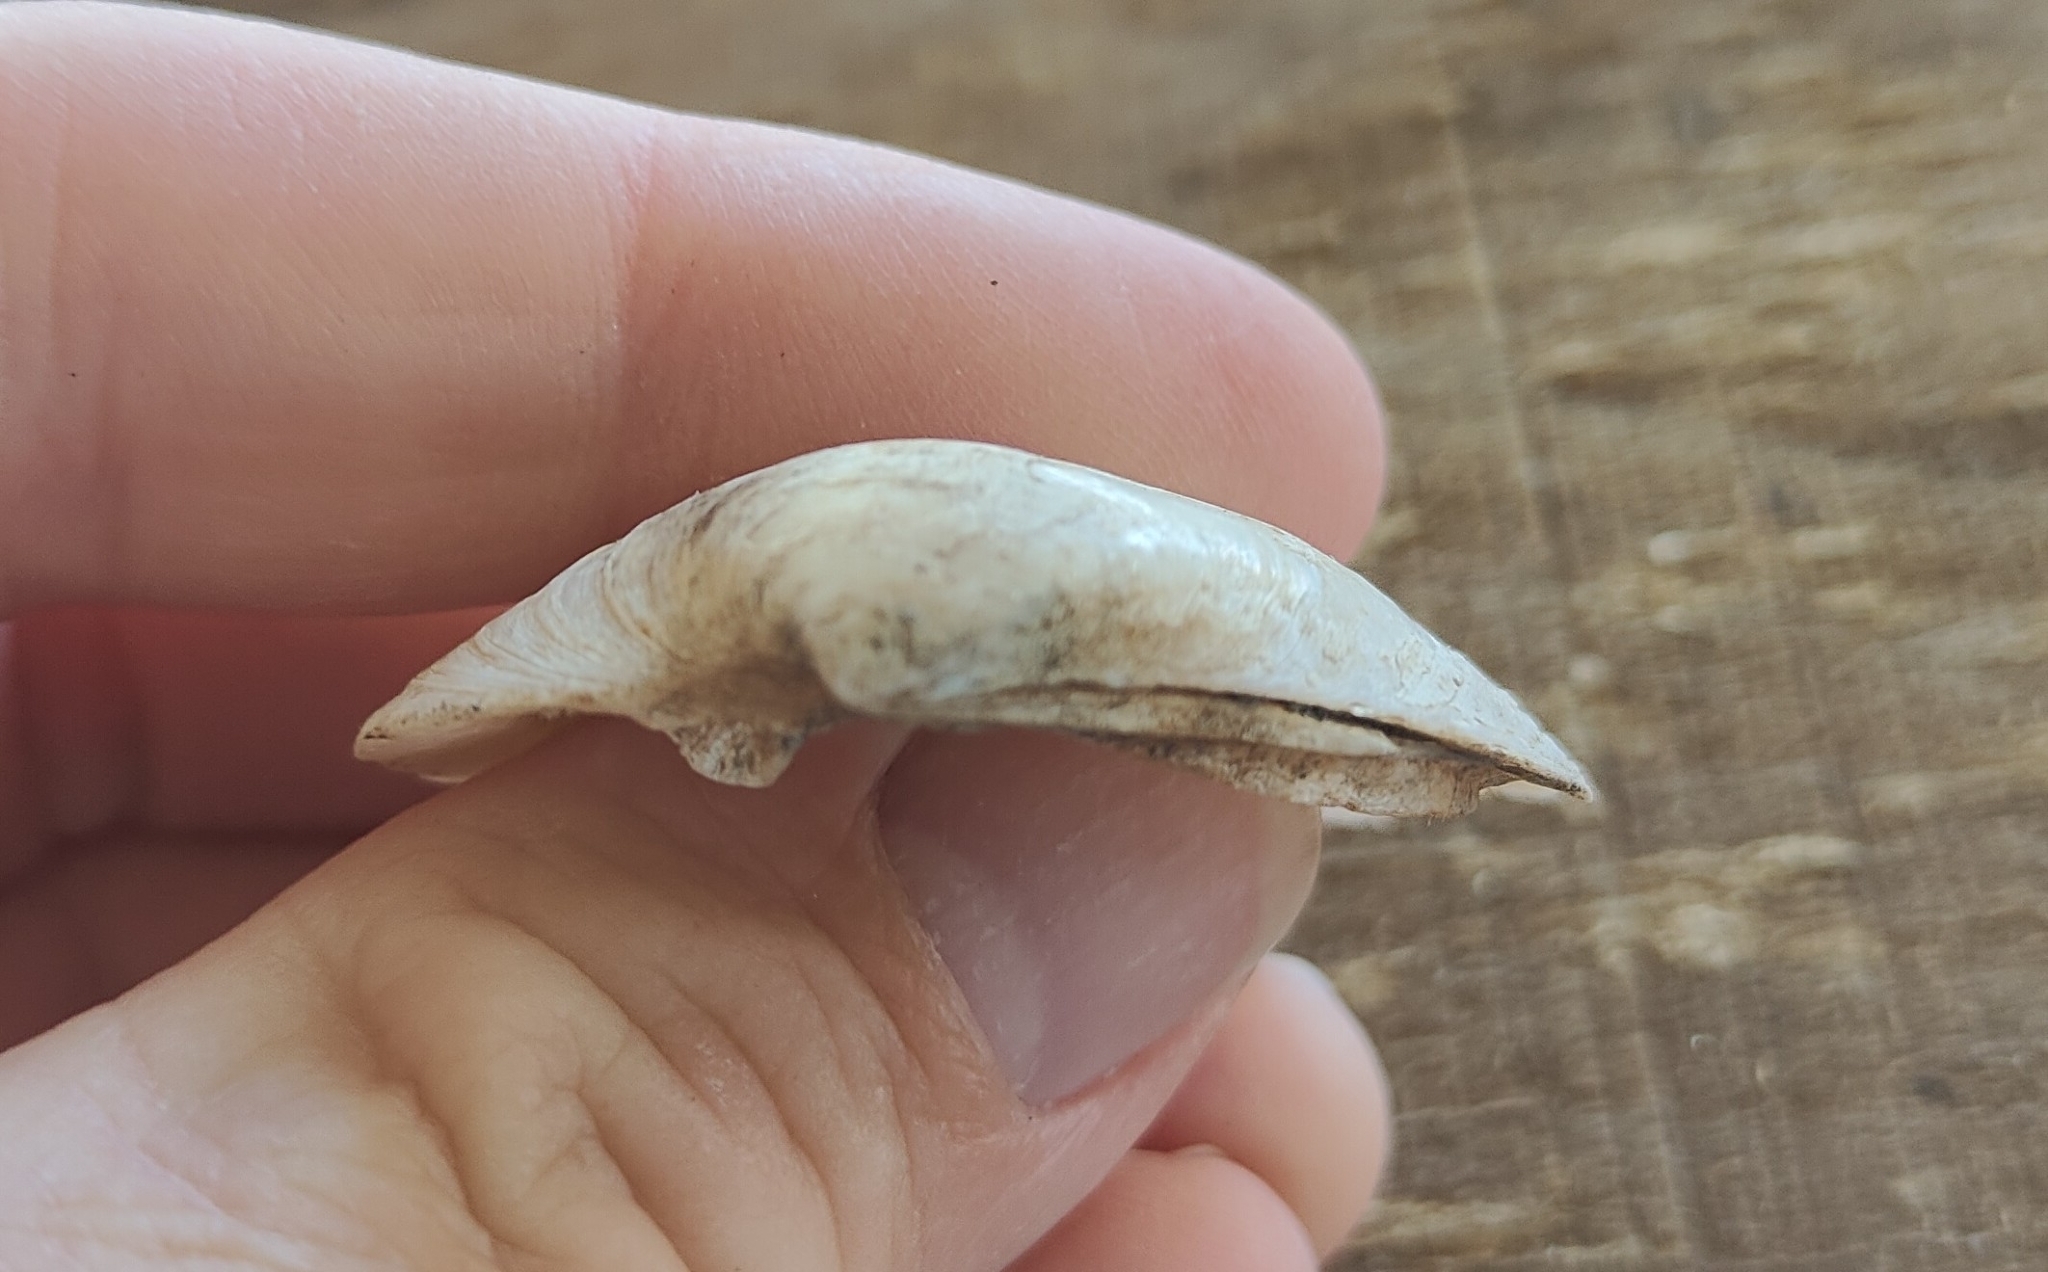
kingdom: Animalia
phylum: Mollusca
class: Bivalvia
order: Unionida
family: Unionidae
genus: Fusconaia
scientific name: Fusconaia flava
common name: Wabash pigtoe
